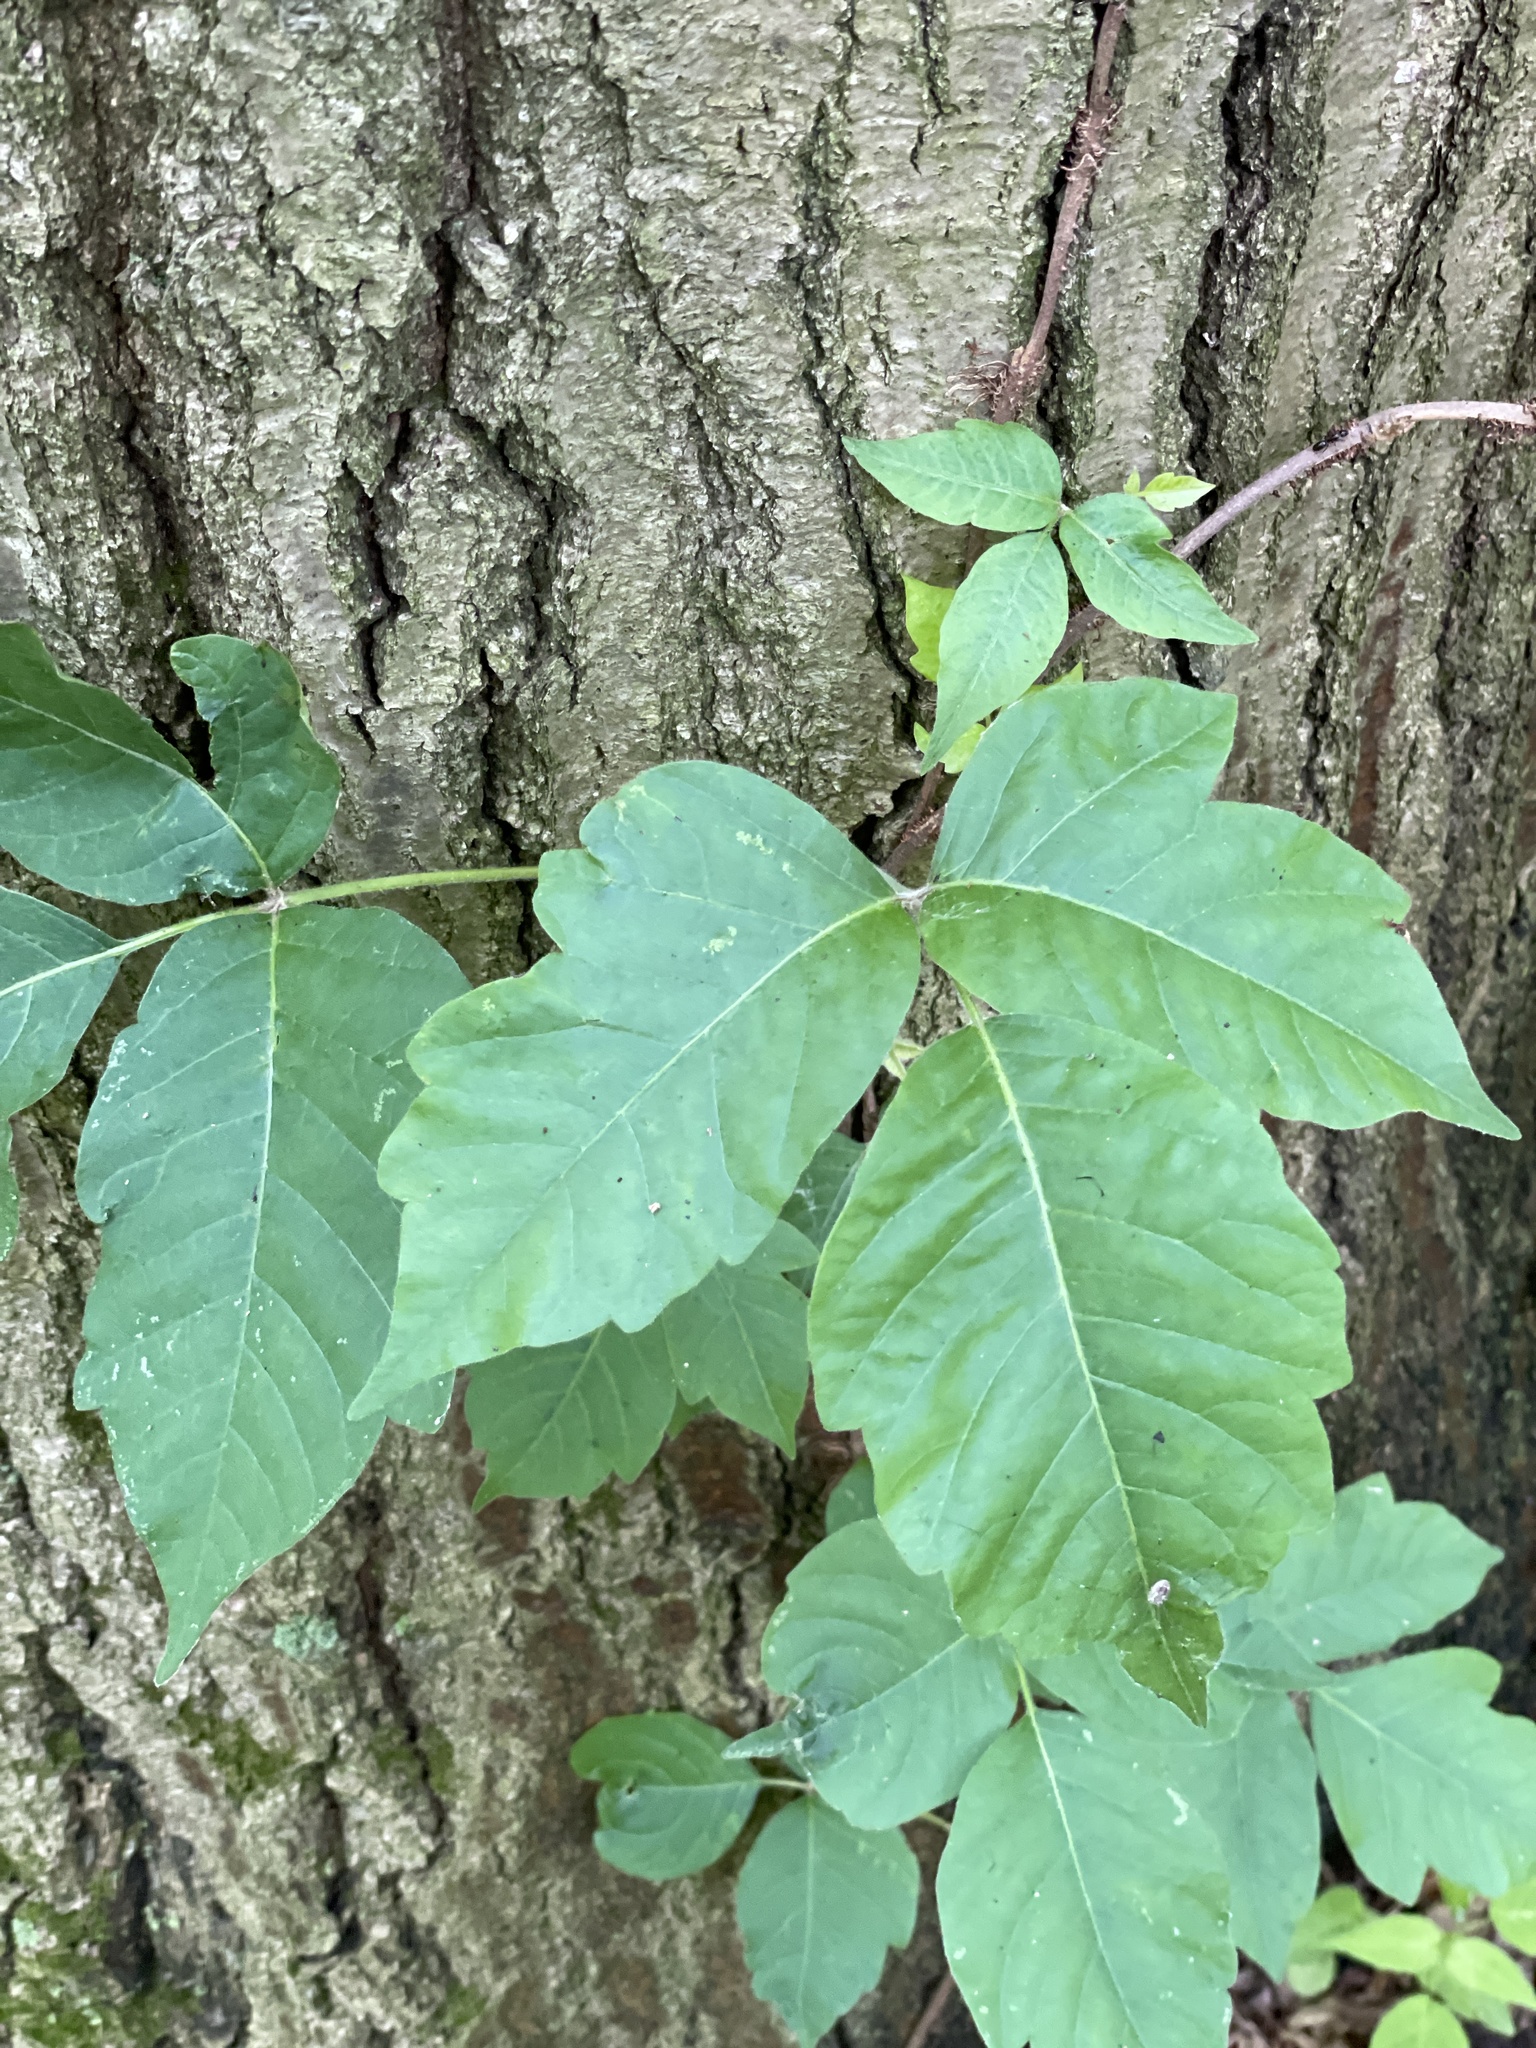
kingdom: Plantae
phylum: Tracheophyta
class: Magnoliopsida
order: Sapindales
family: Anacardiaceae
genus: Toxicodendron
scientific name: Toxicodendron radicans
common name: Poison ivy
